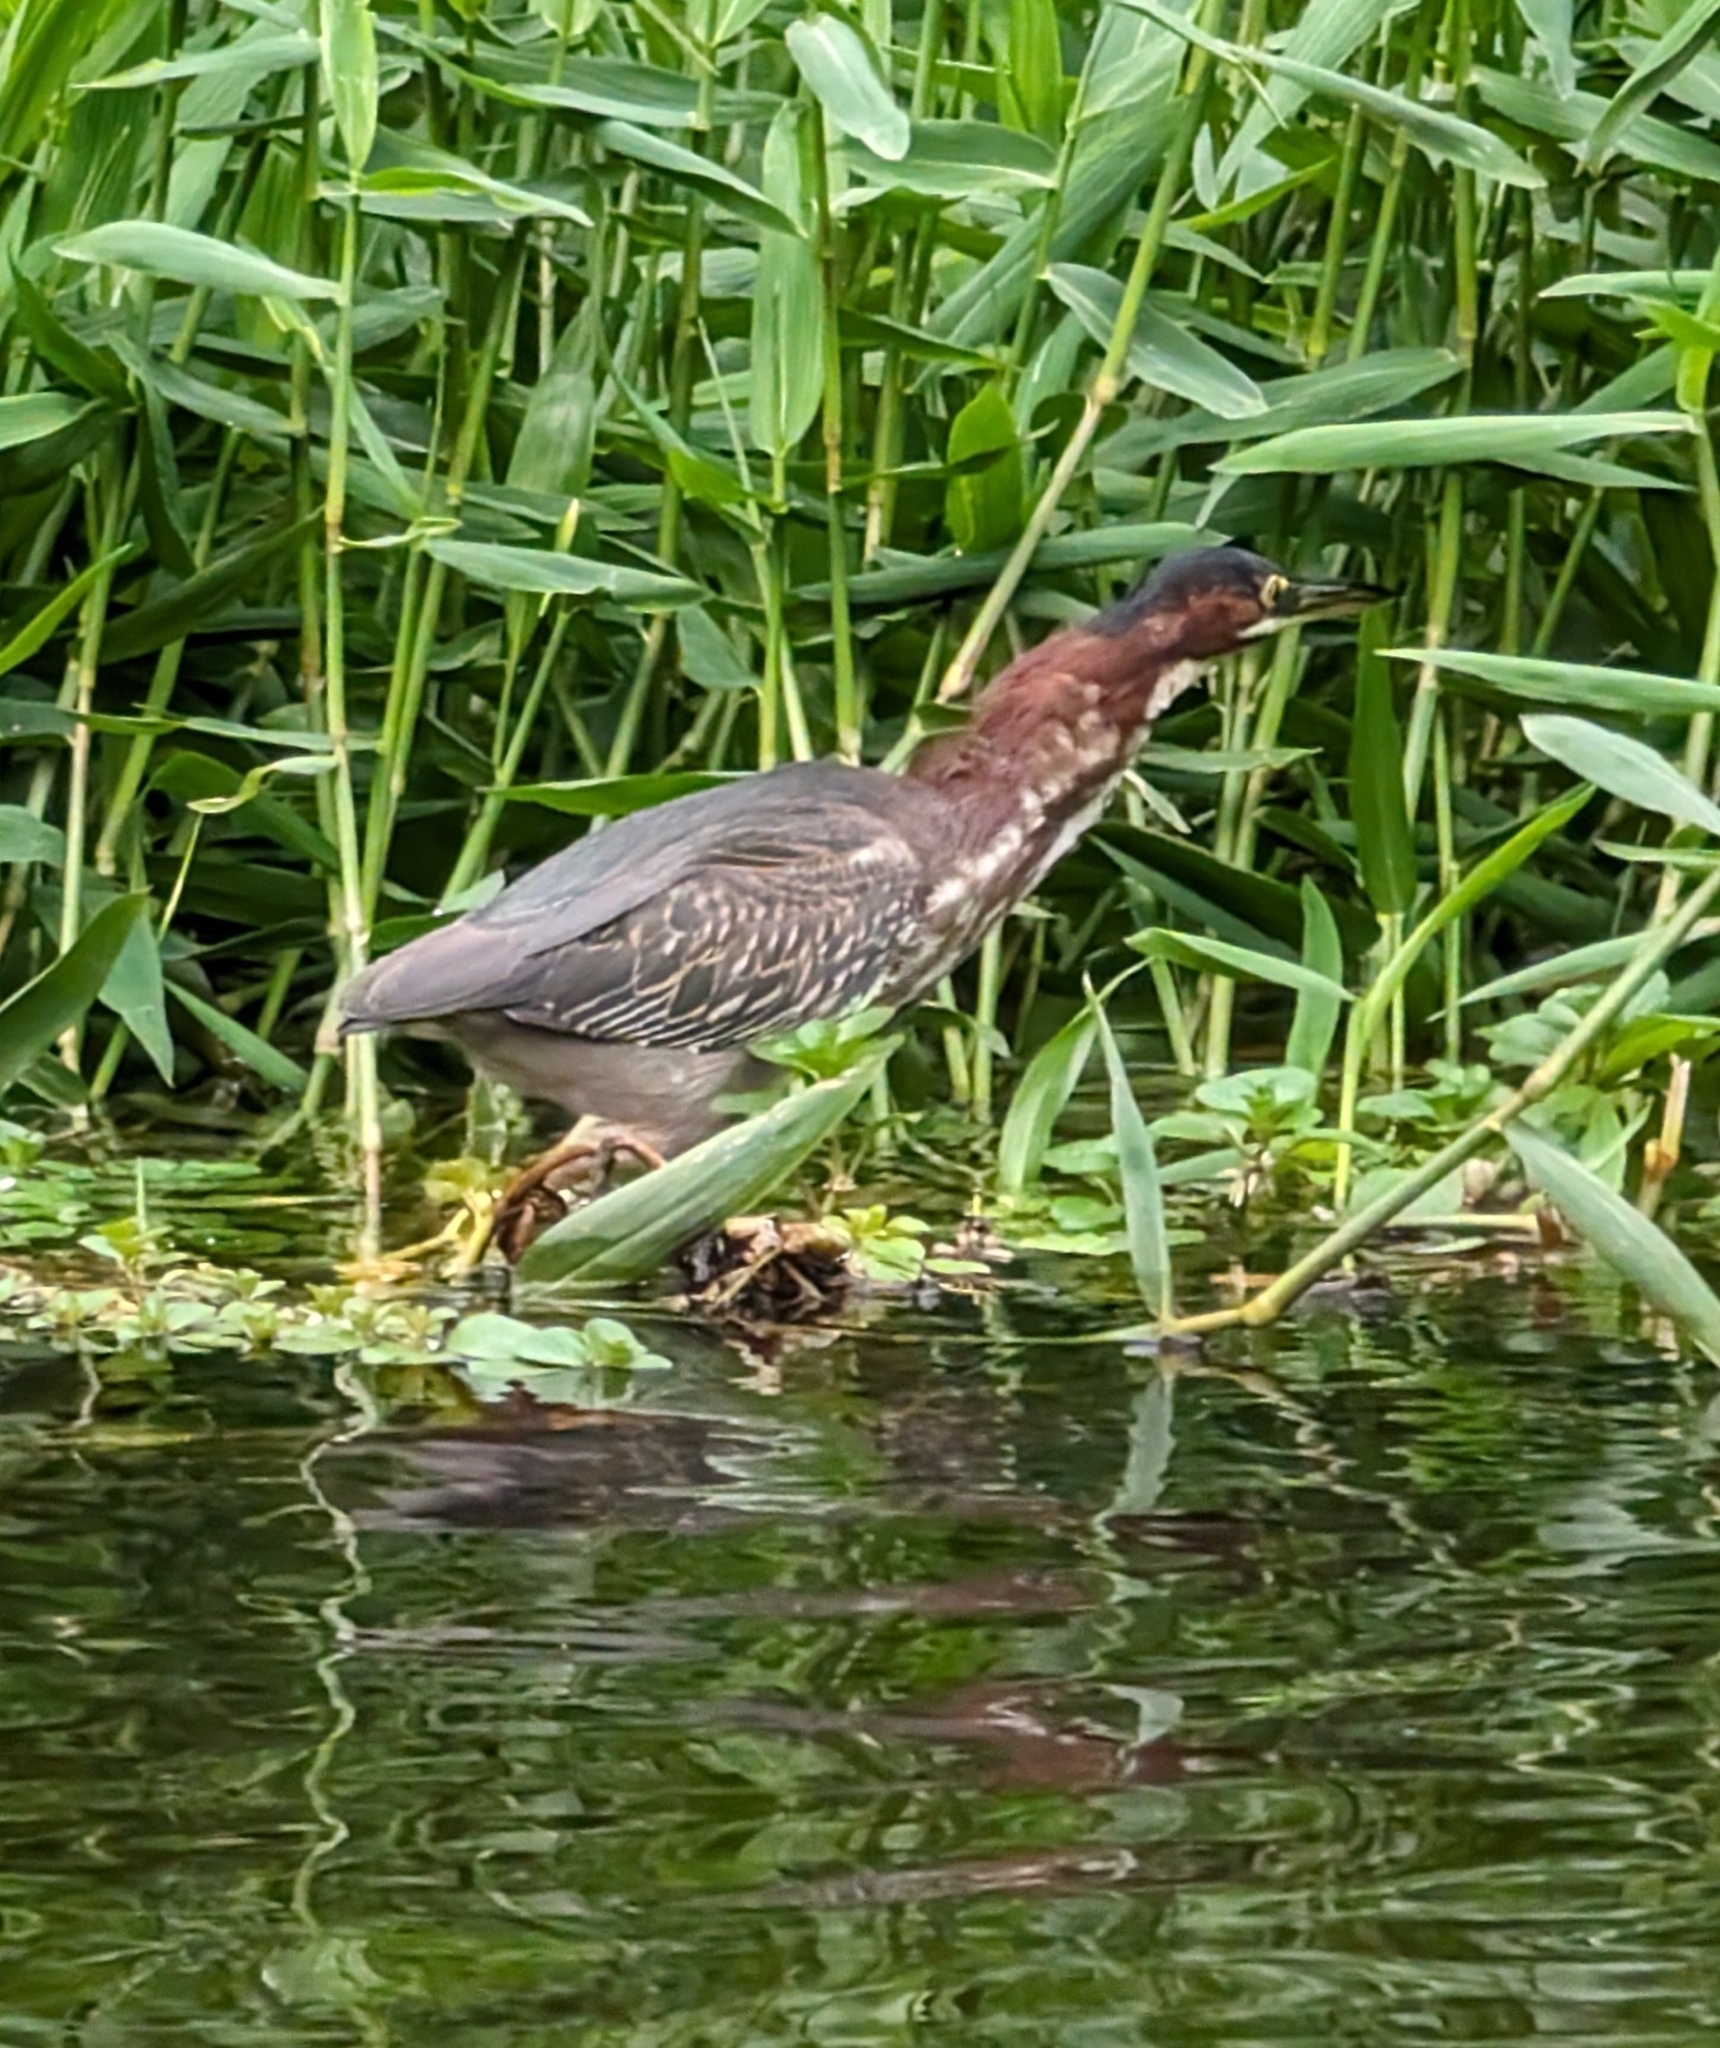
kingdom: Animalia
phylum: Chordata
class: Aves
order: Pelecaniformes
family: Ardeidae
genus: Butorides
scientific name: Butorides virescens
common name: Green heron
